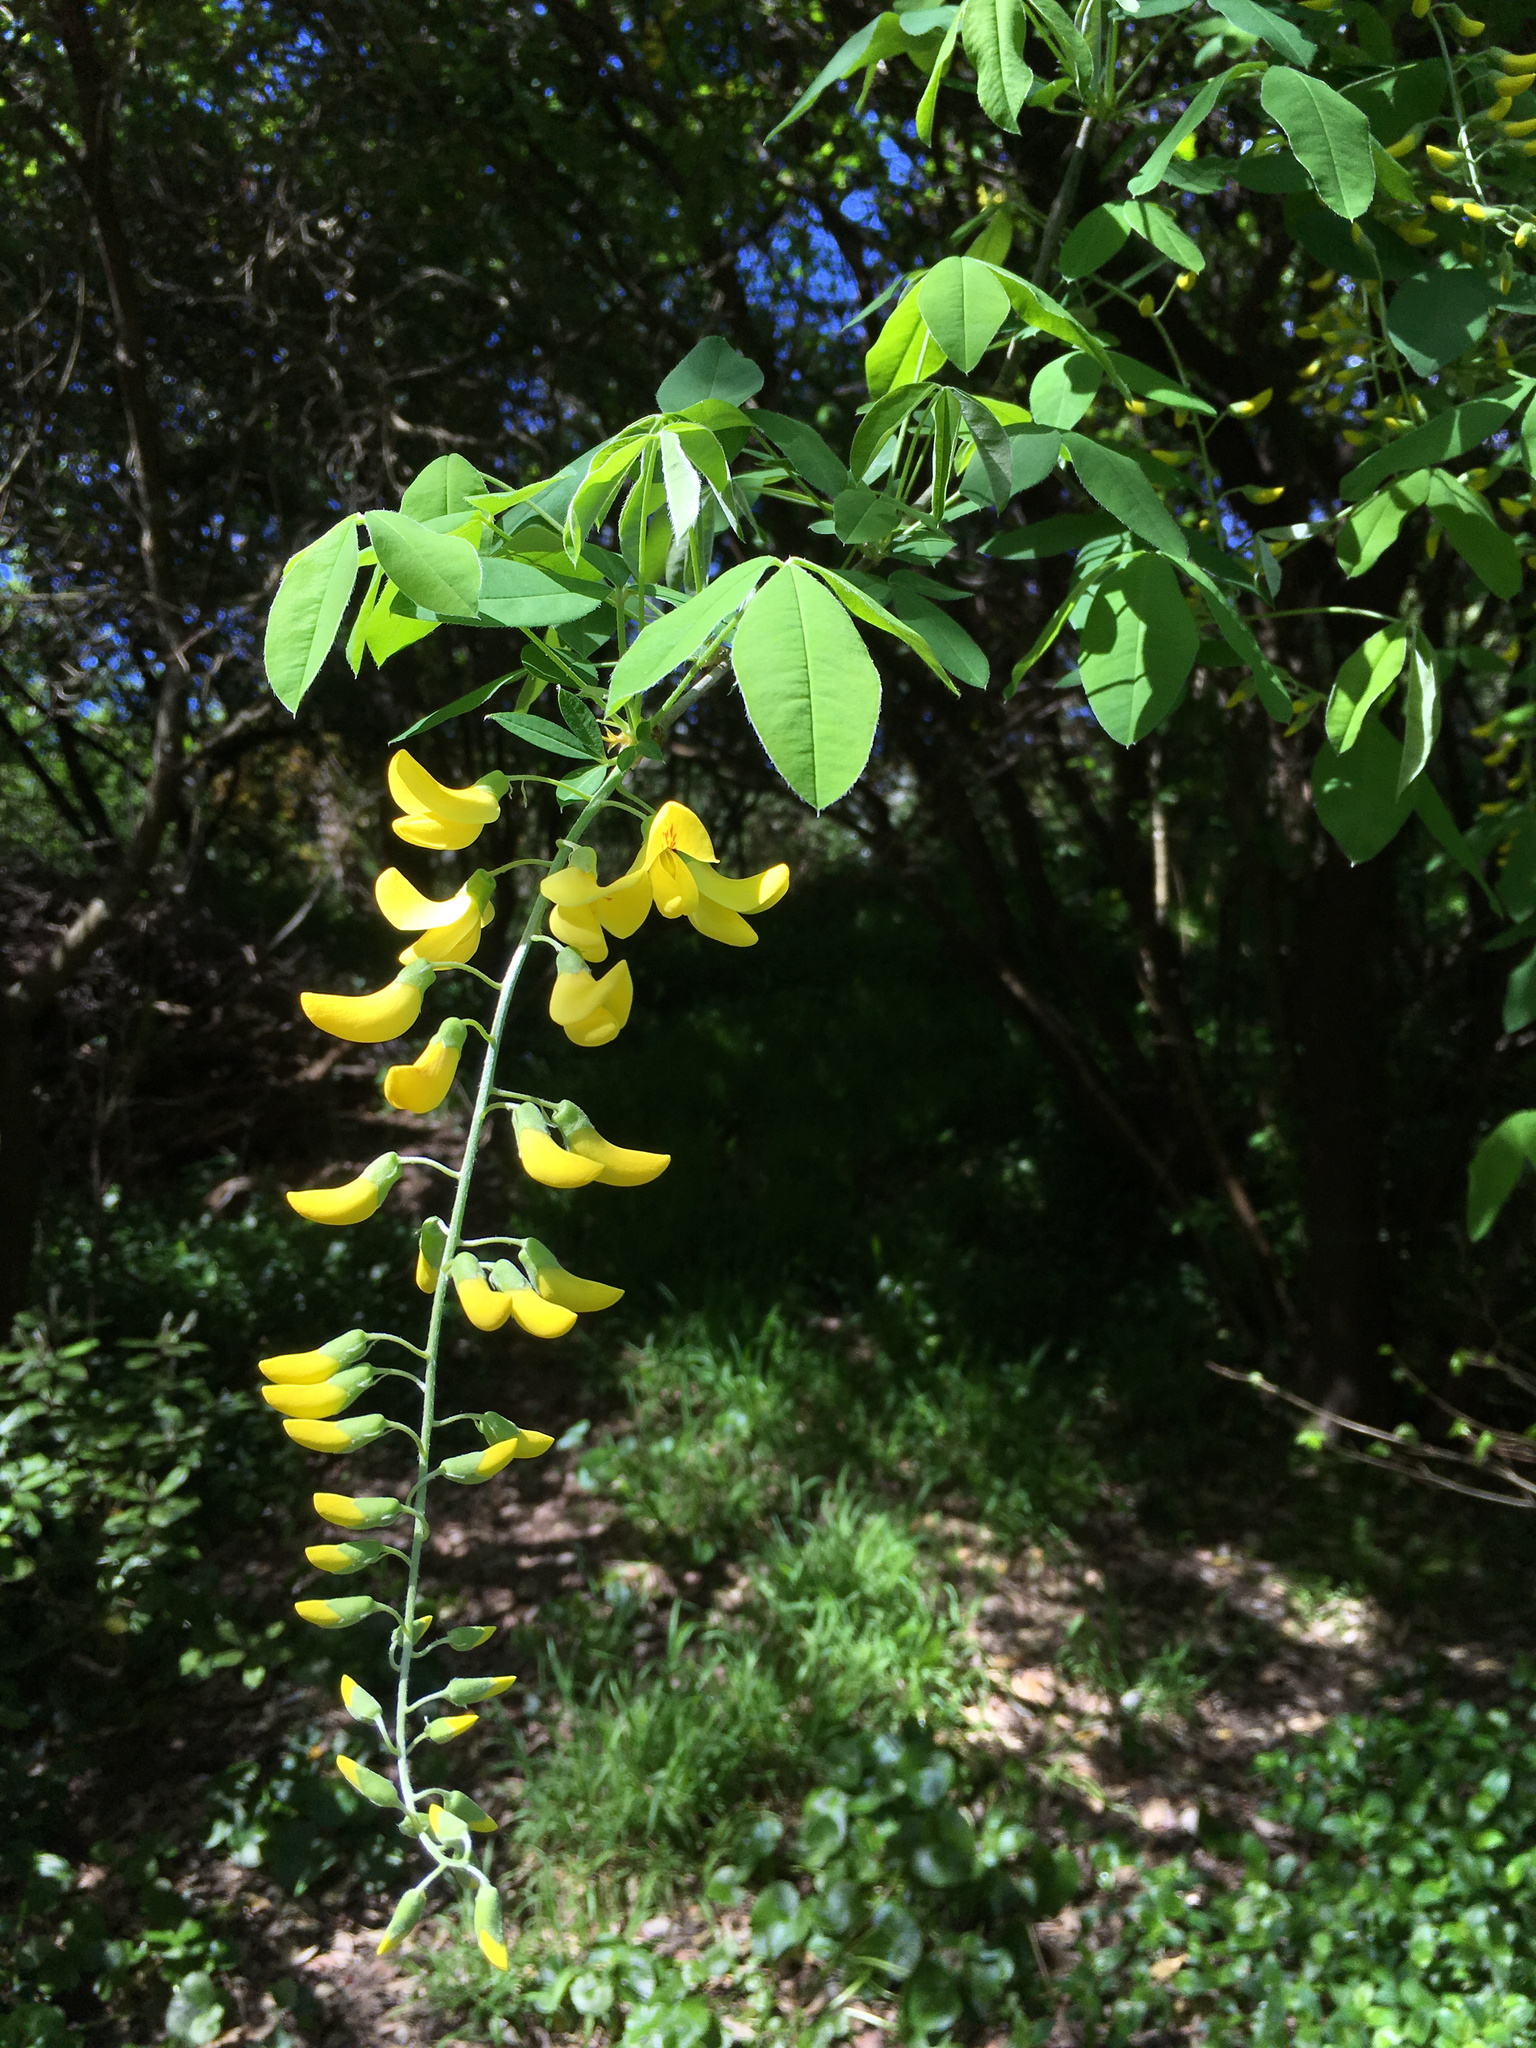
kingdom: Plantae
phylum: Tracheophyta
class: Magnoliopsida
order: Fabales
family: Fabaceae
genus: Laburnum
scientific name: Laburnum anagyroides
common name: Laburnum
